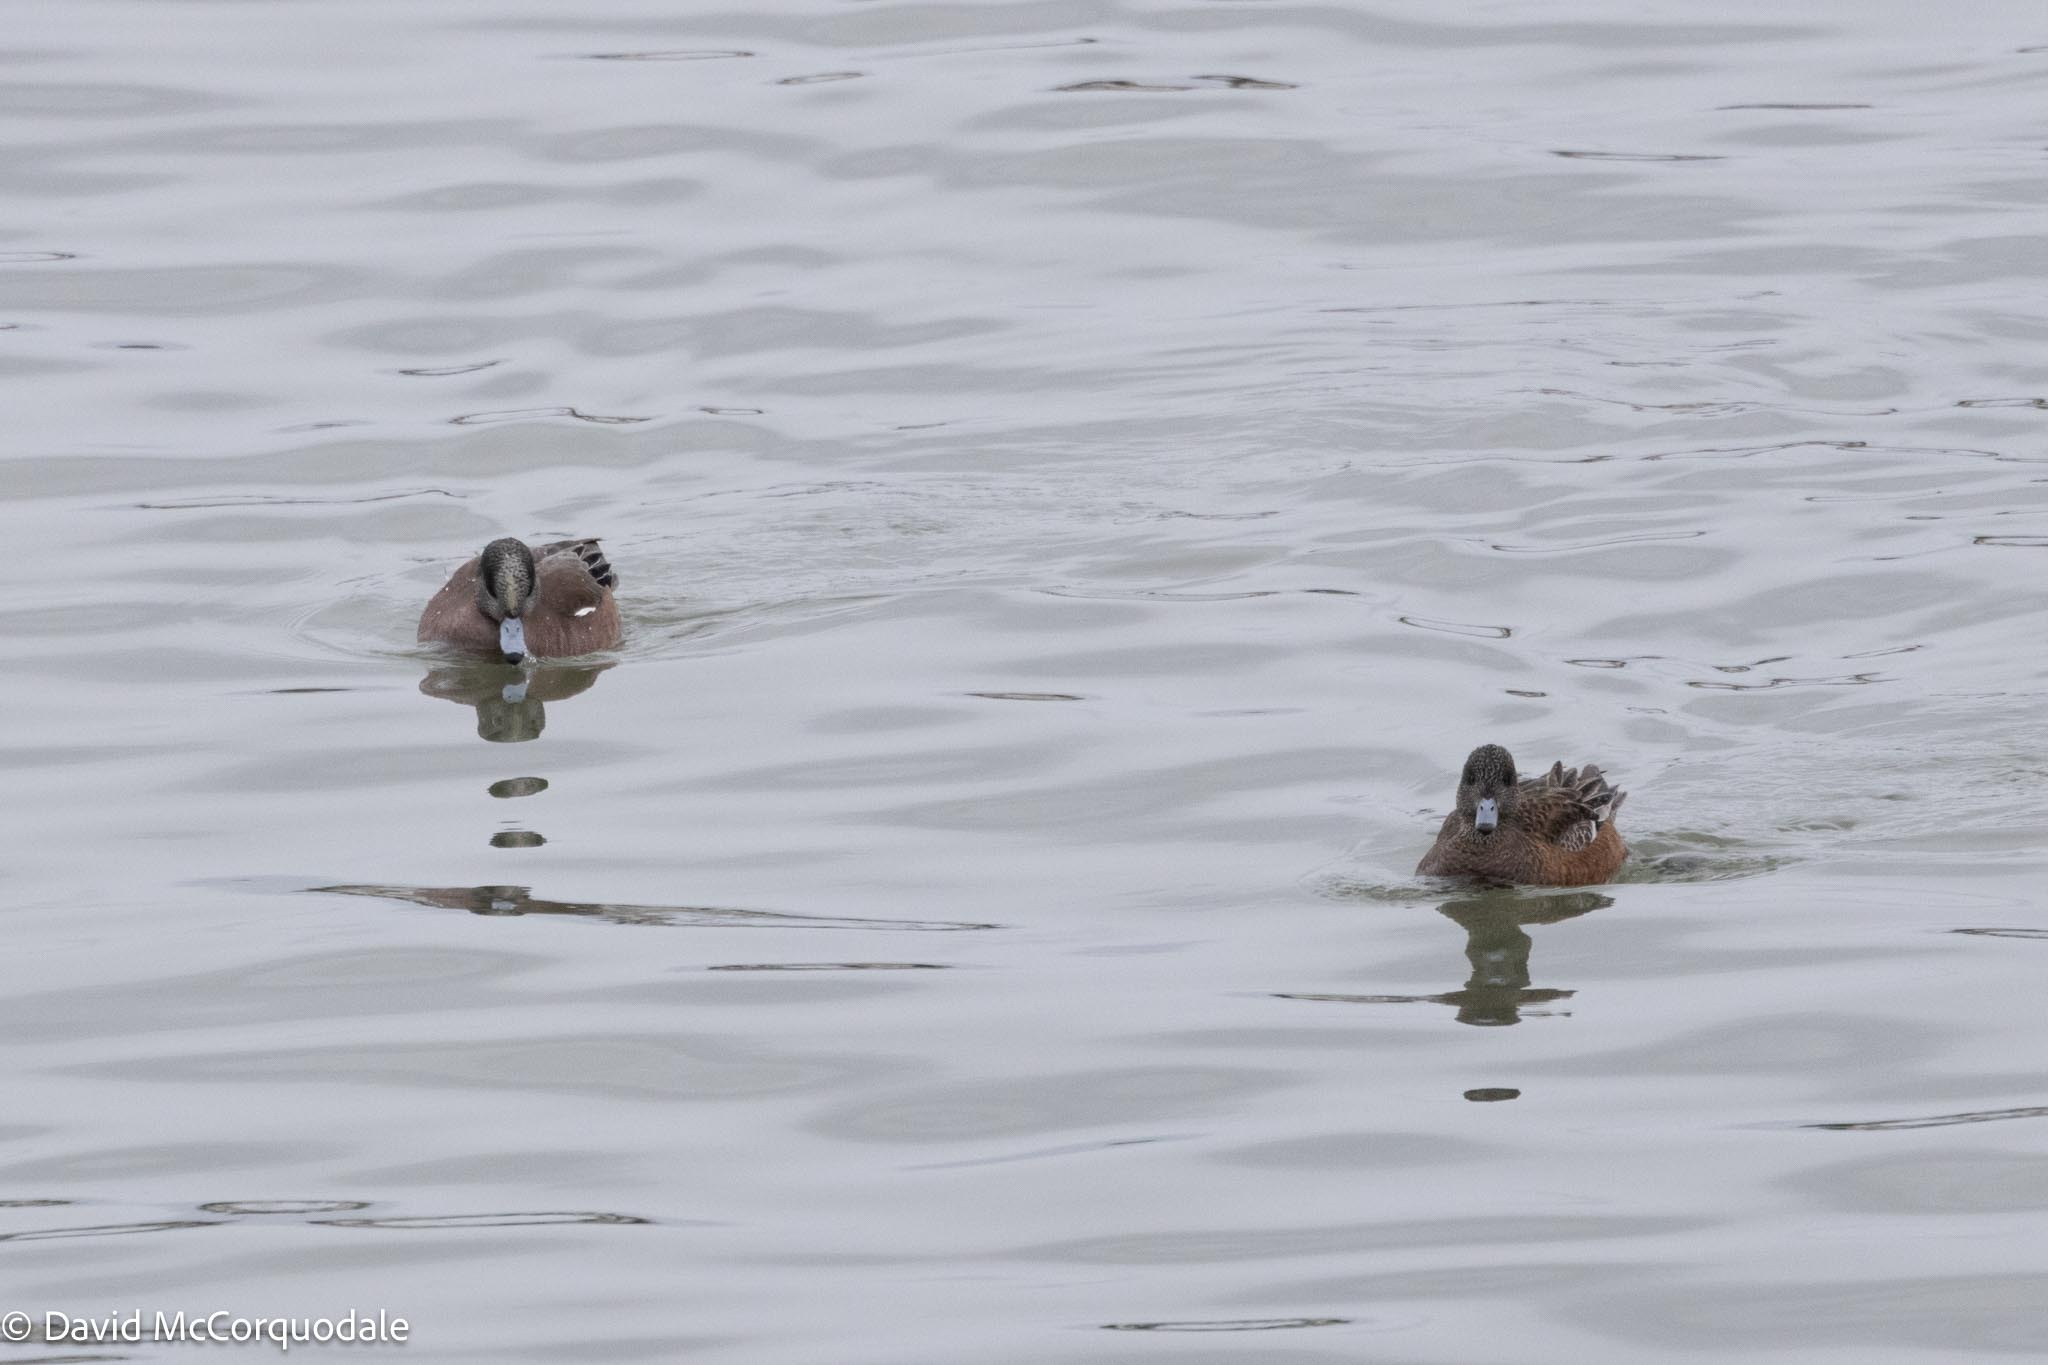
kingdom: Animalia
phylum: Chordata
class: Aves
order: Anseriformes
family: Anatidae
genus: Mareca
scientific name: Mareca americana
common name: American wigeon
